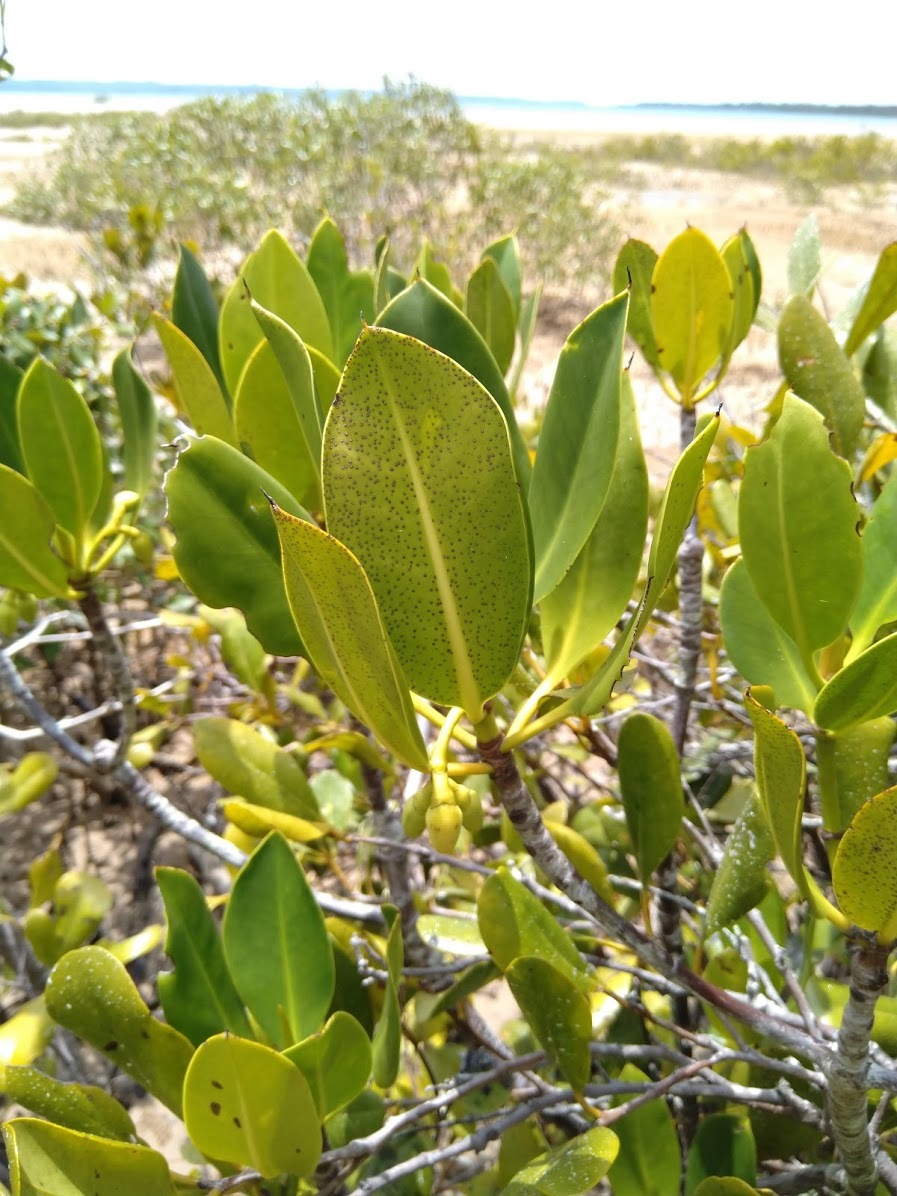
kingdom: Plantae
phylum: Tracheophyta
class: Magnoliopsida
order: Malpighiales
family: Rhizophoraceae
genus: Rhizophora
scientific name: Rhizophora stylosa
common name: Red mangrove
